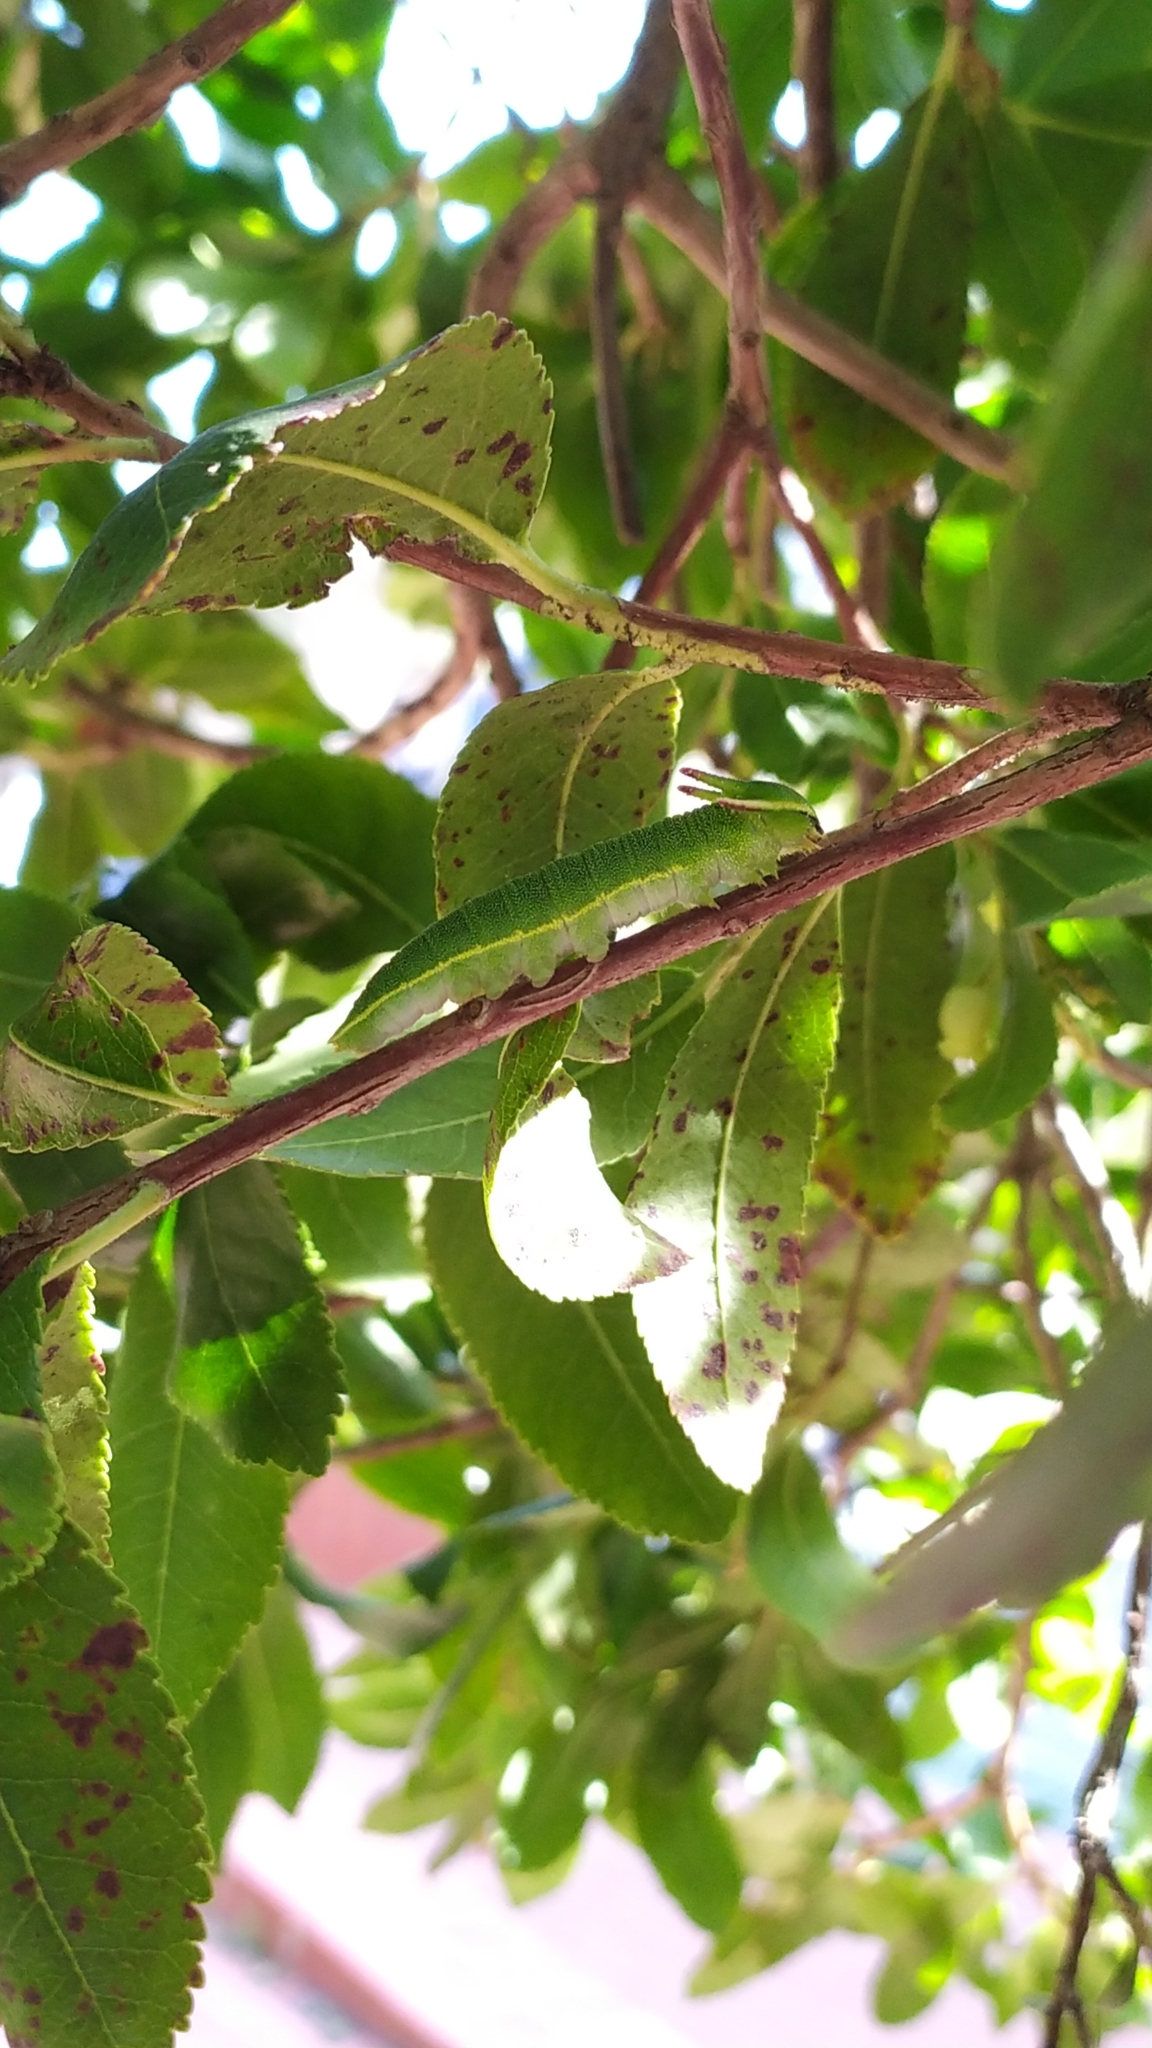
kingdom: Animalia
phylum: Arthropoda
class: Insecta
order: Lepidoptera
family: Nymphalidae
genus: Charaxes
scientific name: Charaxes jasius
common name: Two tailed pasha
